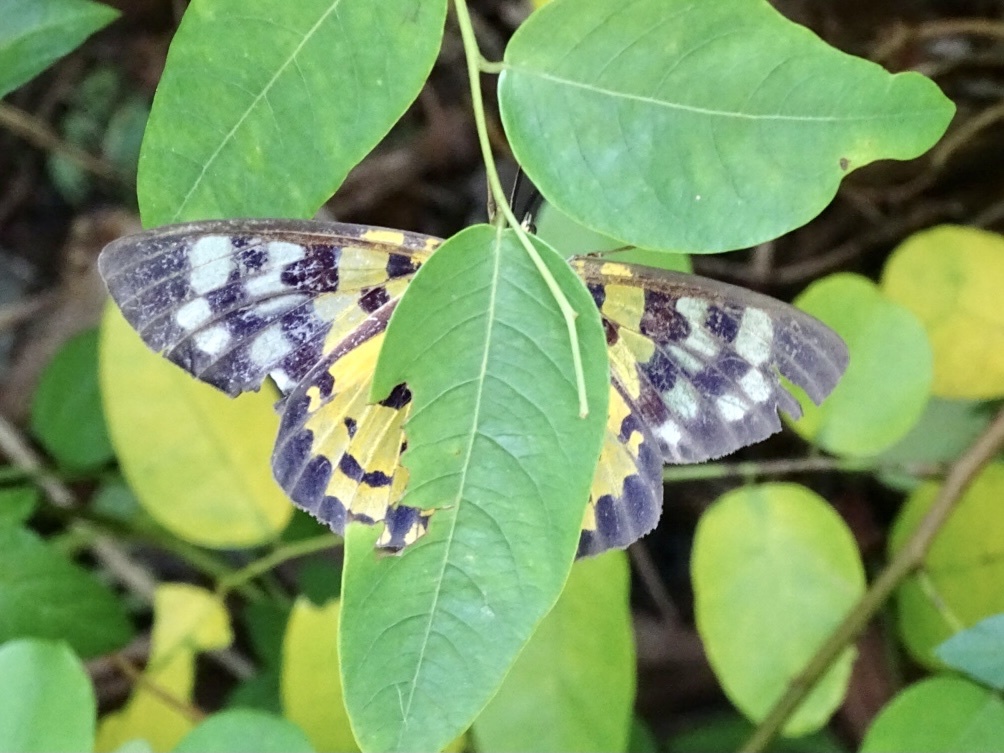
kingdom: Animalia
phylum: Arthropoda
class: Insecta
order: Lepidoptera
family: Geometridae
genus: Dysphania
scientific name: Dysphania militaris
